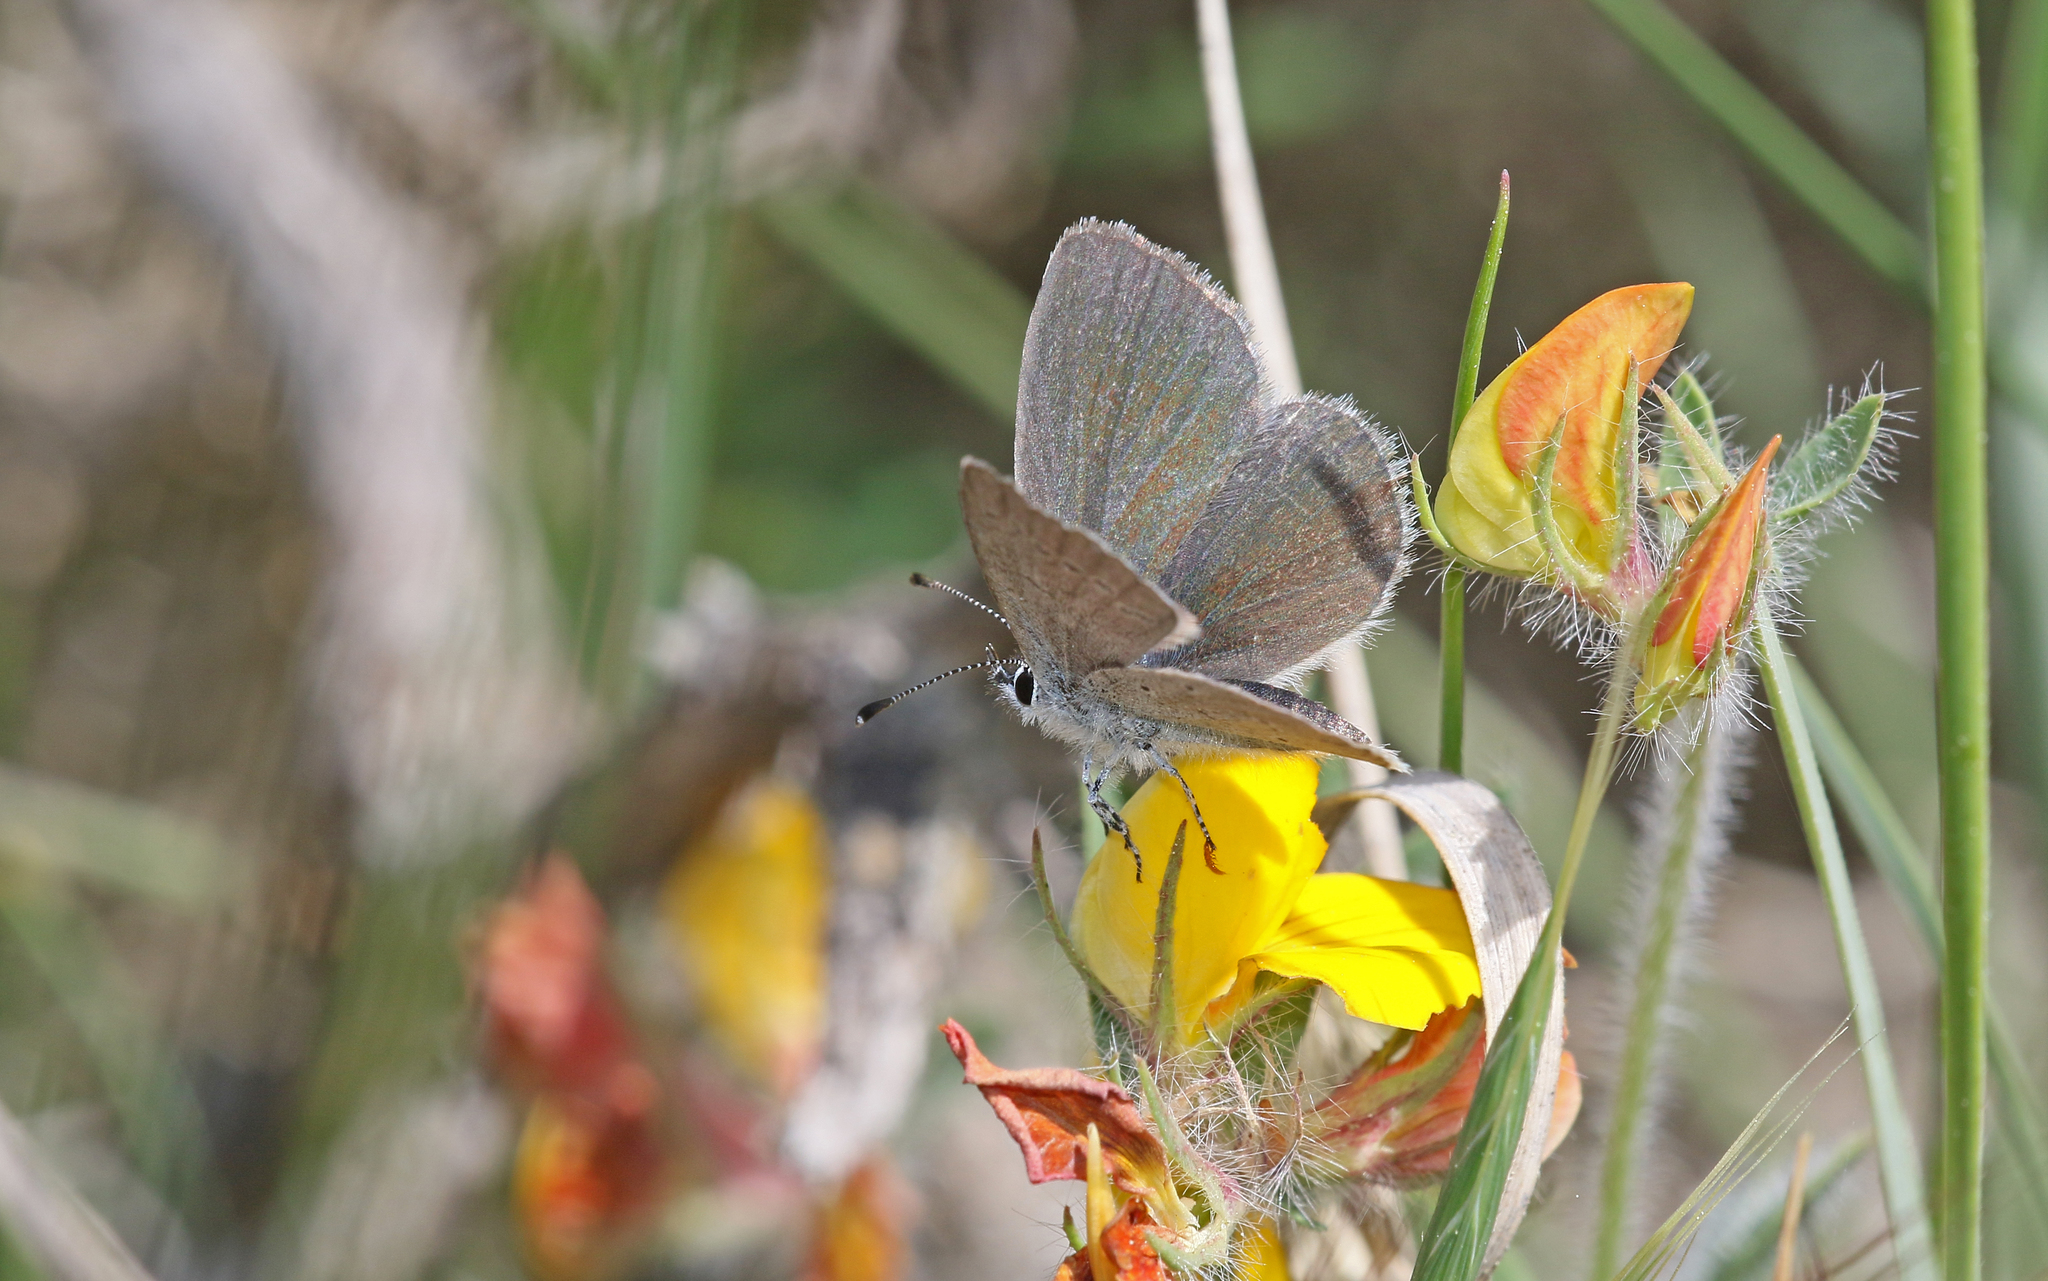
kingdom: Animalia
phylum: Arthropoda
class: Insecta
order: Lepidoptera
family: Lycaenidae
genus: Cupido
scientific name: Cupido lorquinii
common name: Lorquin’s blue
